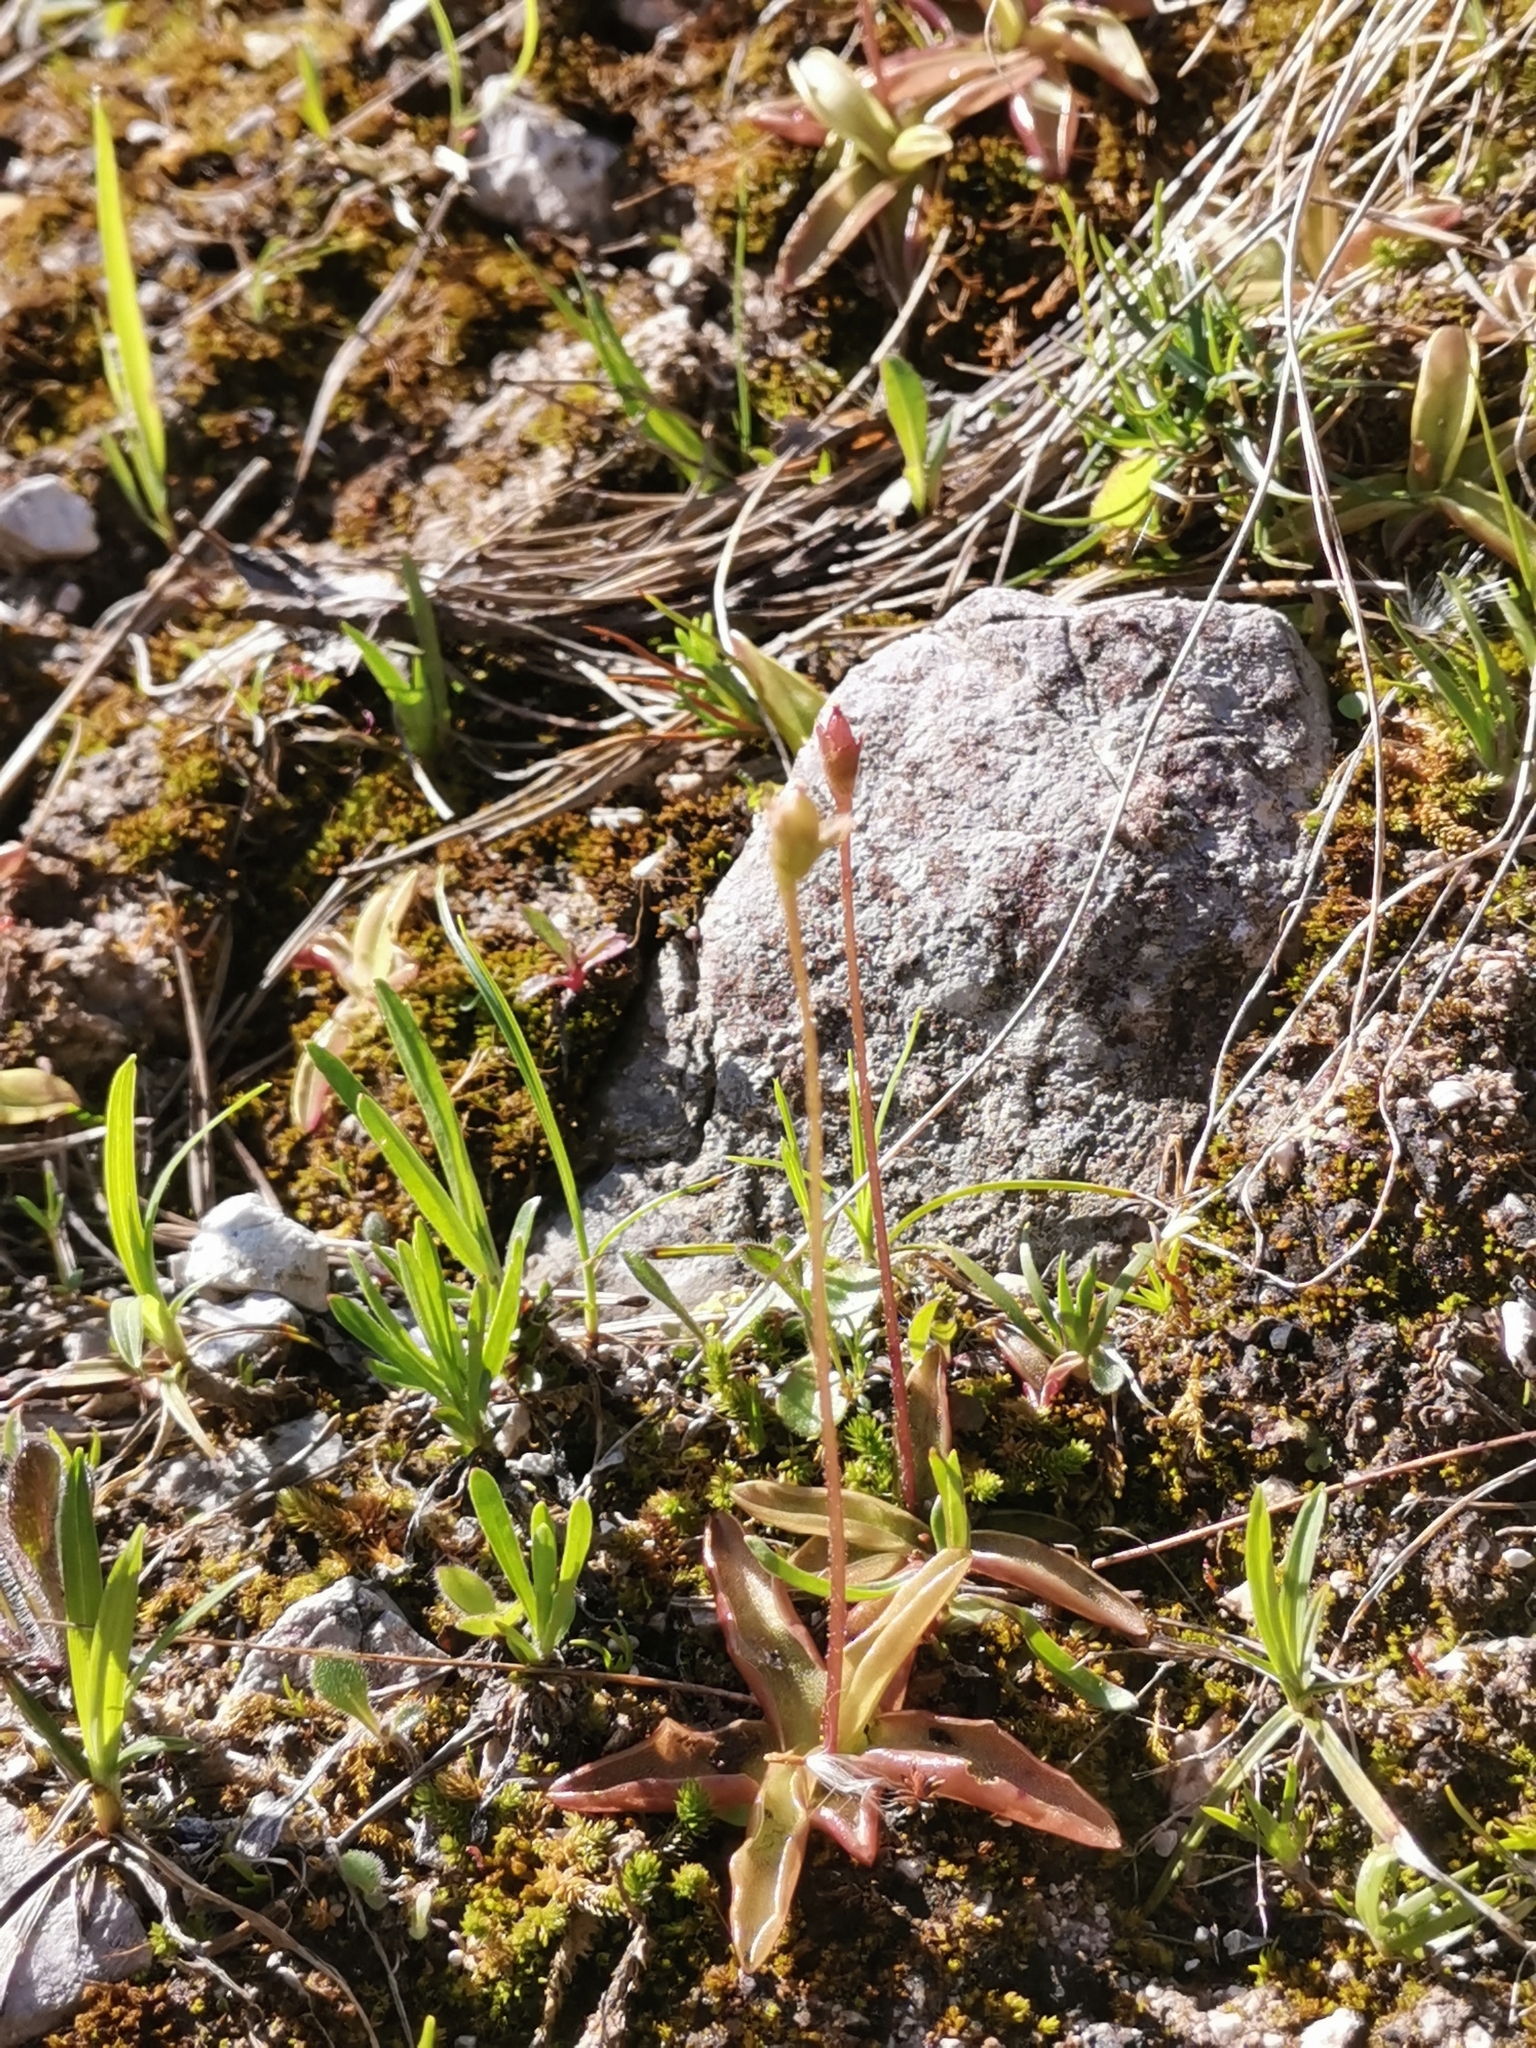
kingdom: Plantae
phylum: Tracheophyta
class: Magnoliopsida
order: Lamiales
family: Lentibulariaceae
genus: Pinguicula
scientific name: Pinguicula alpina
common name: Alpine butterwort
